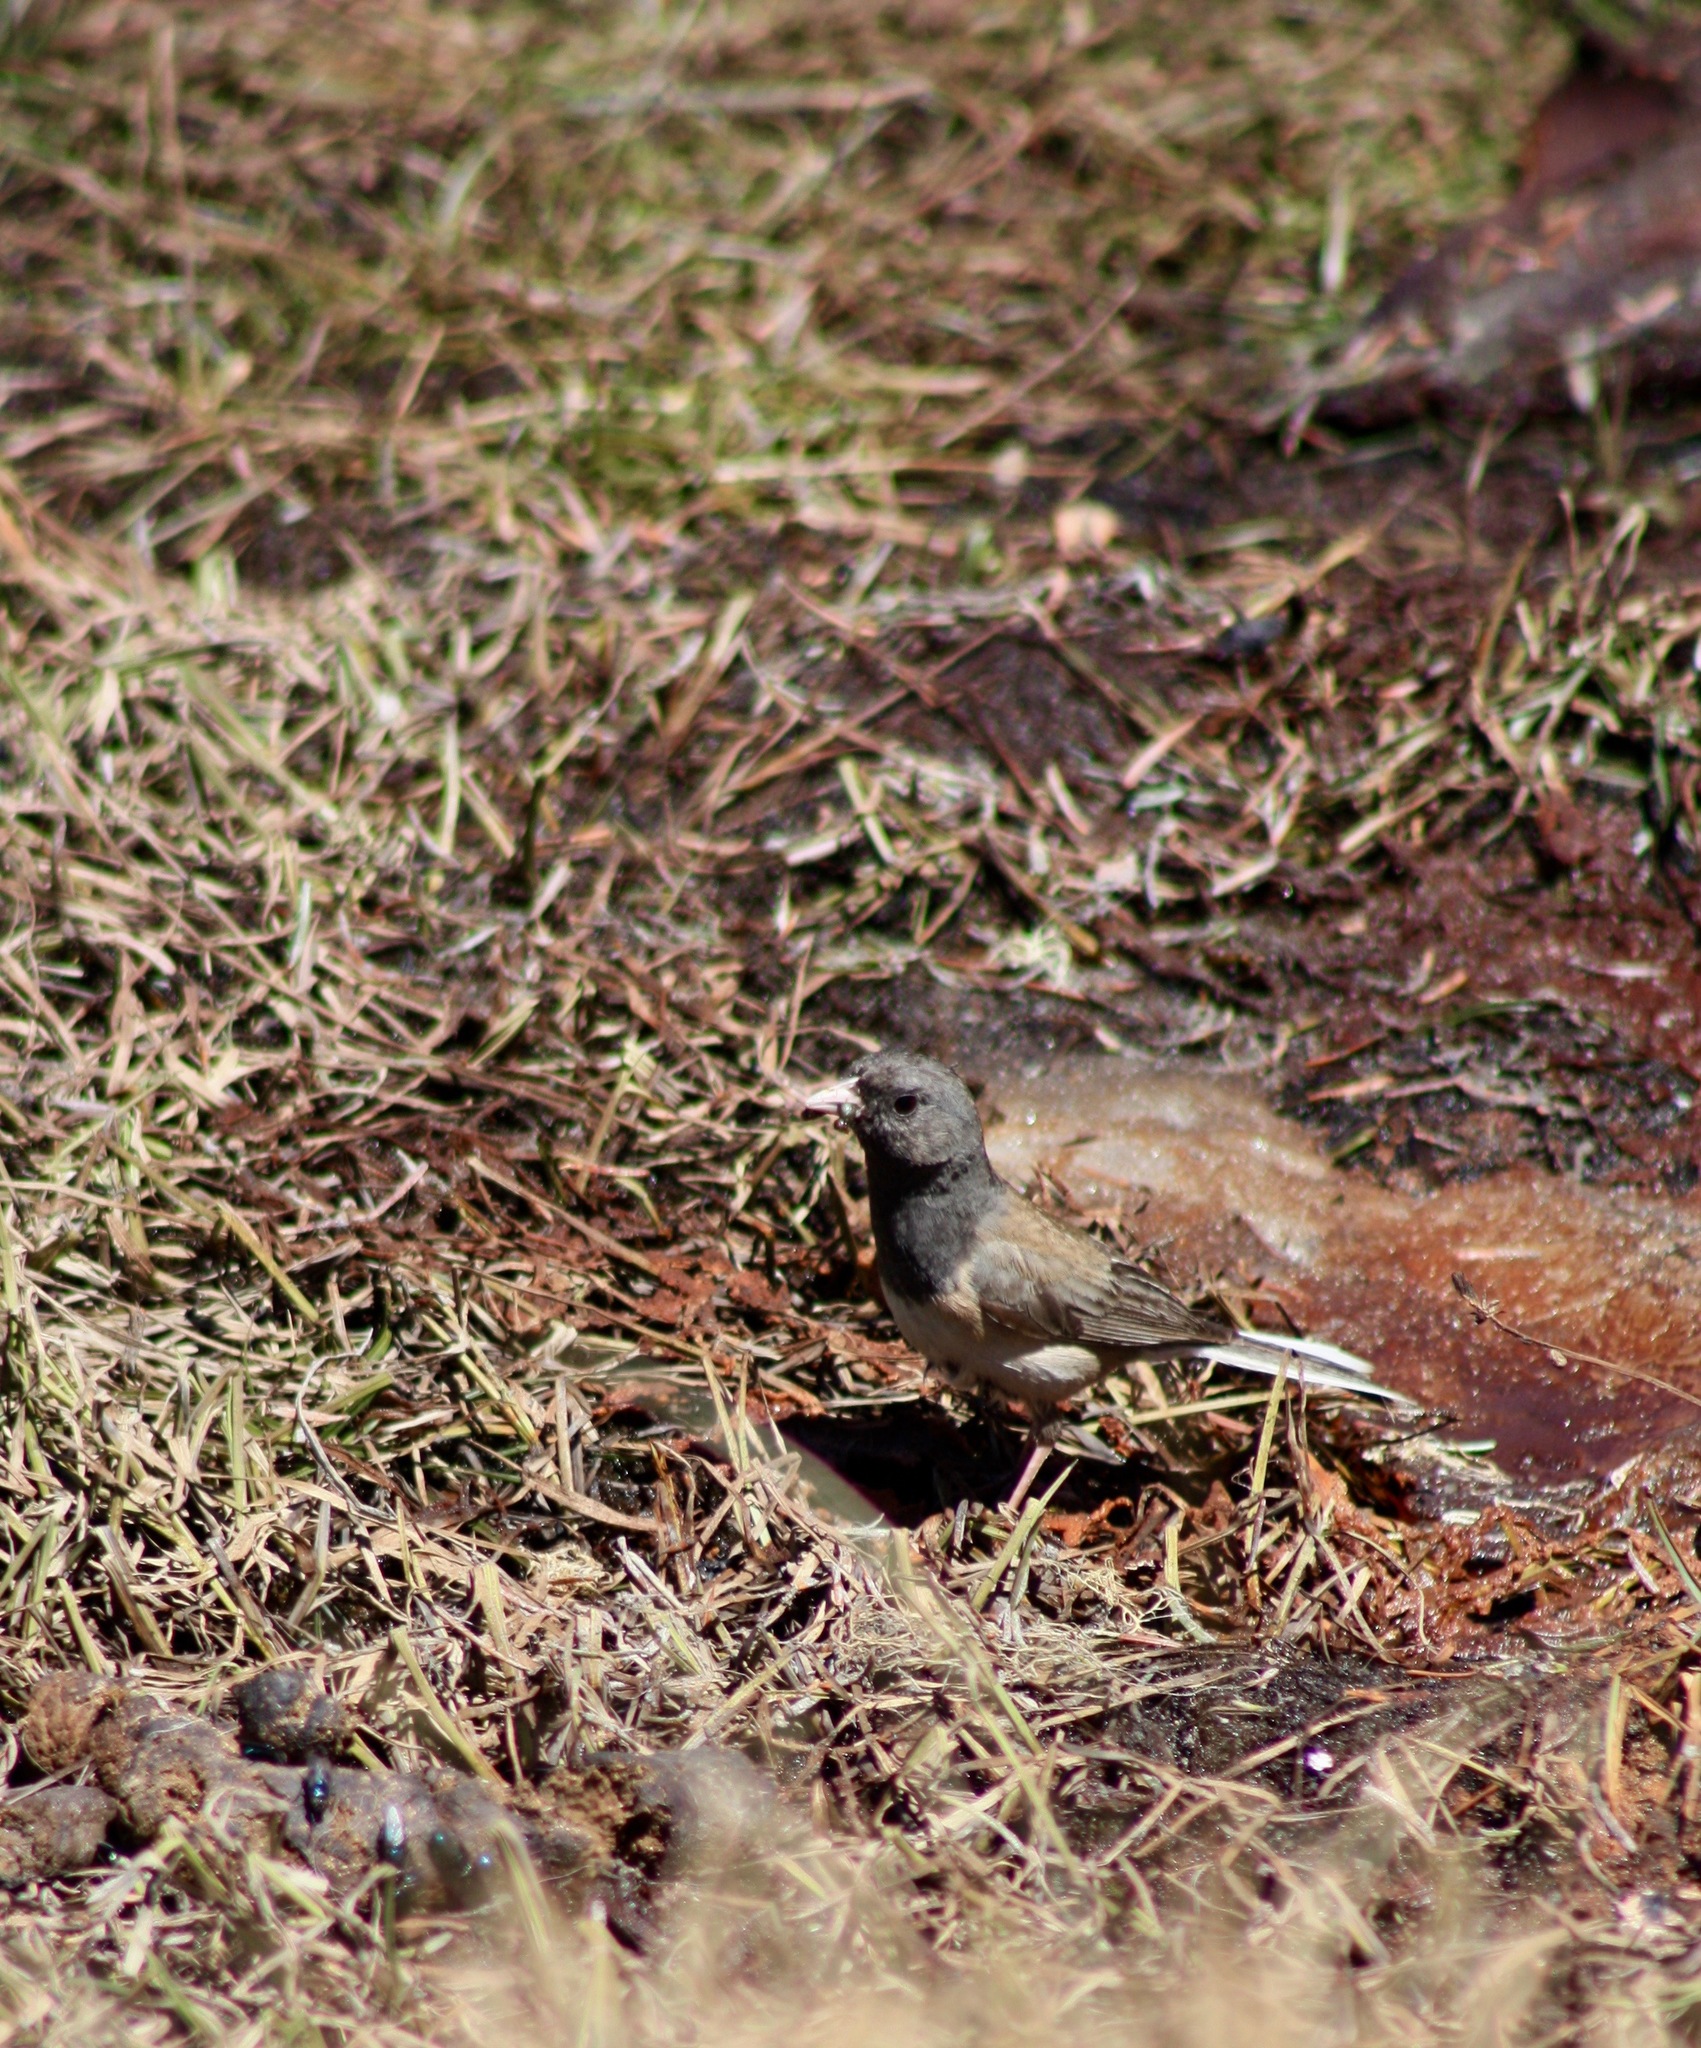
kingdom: Animalia
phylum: Chordata
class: Aves
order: Passeriformes
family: Passerellidae
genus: Junco
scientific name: Junco hyemalis
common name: Dark-eyed junco
